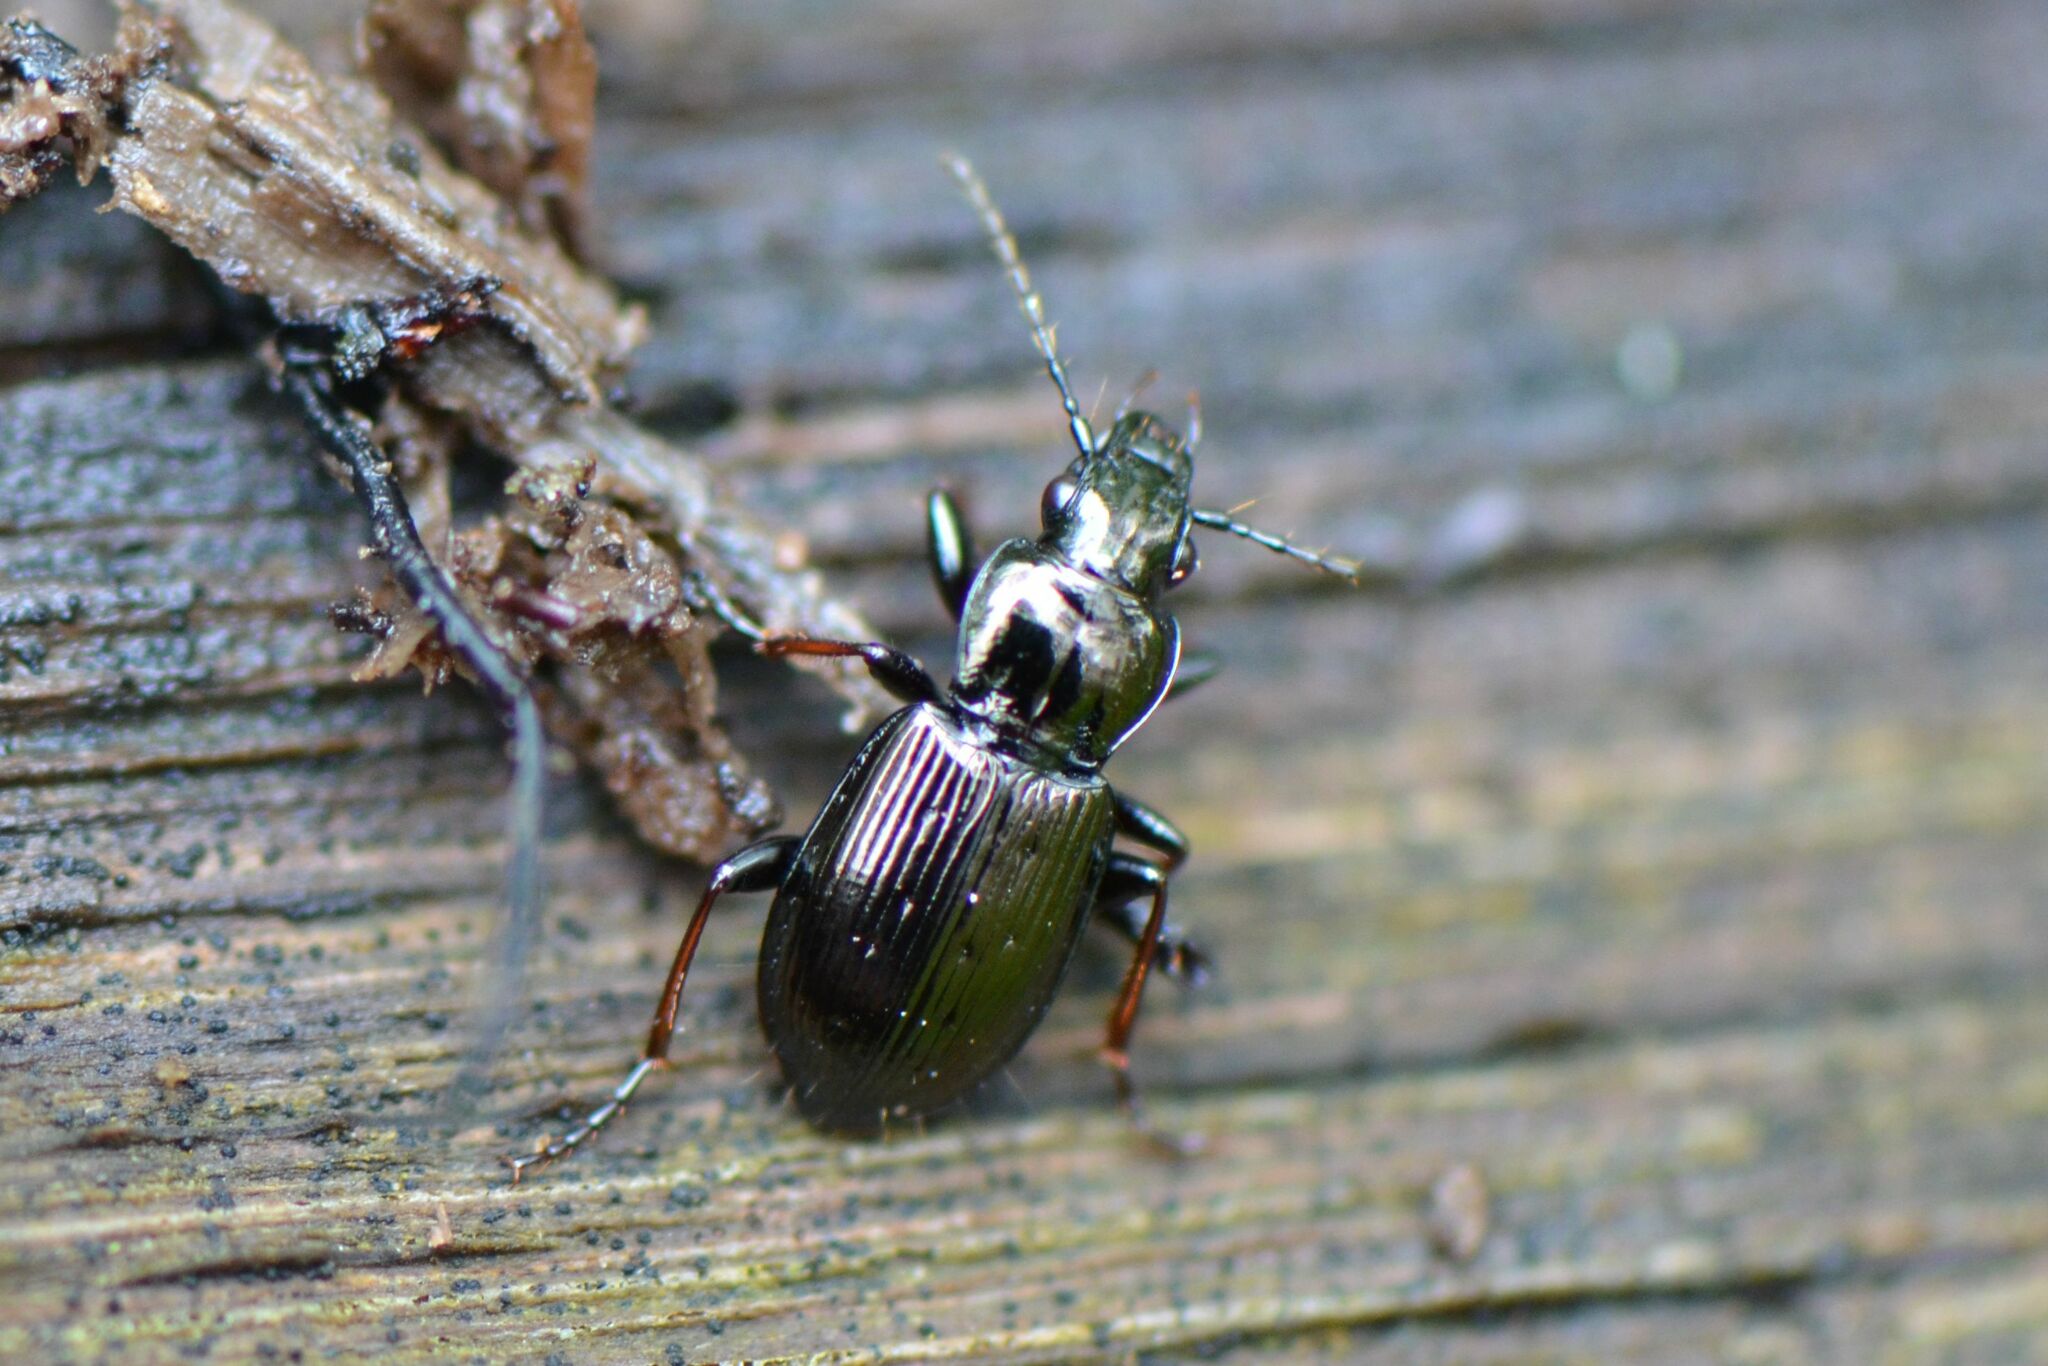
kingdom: Animalia
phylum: Arthropoda
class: Insecta
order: Coleoptera
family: Carabidae
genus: Pterostichus
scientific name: Pterostichus oblongopunctatus
